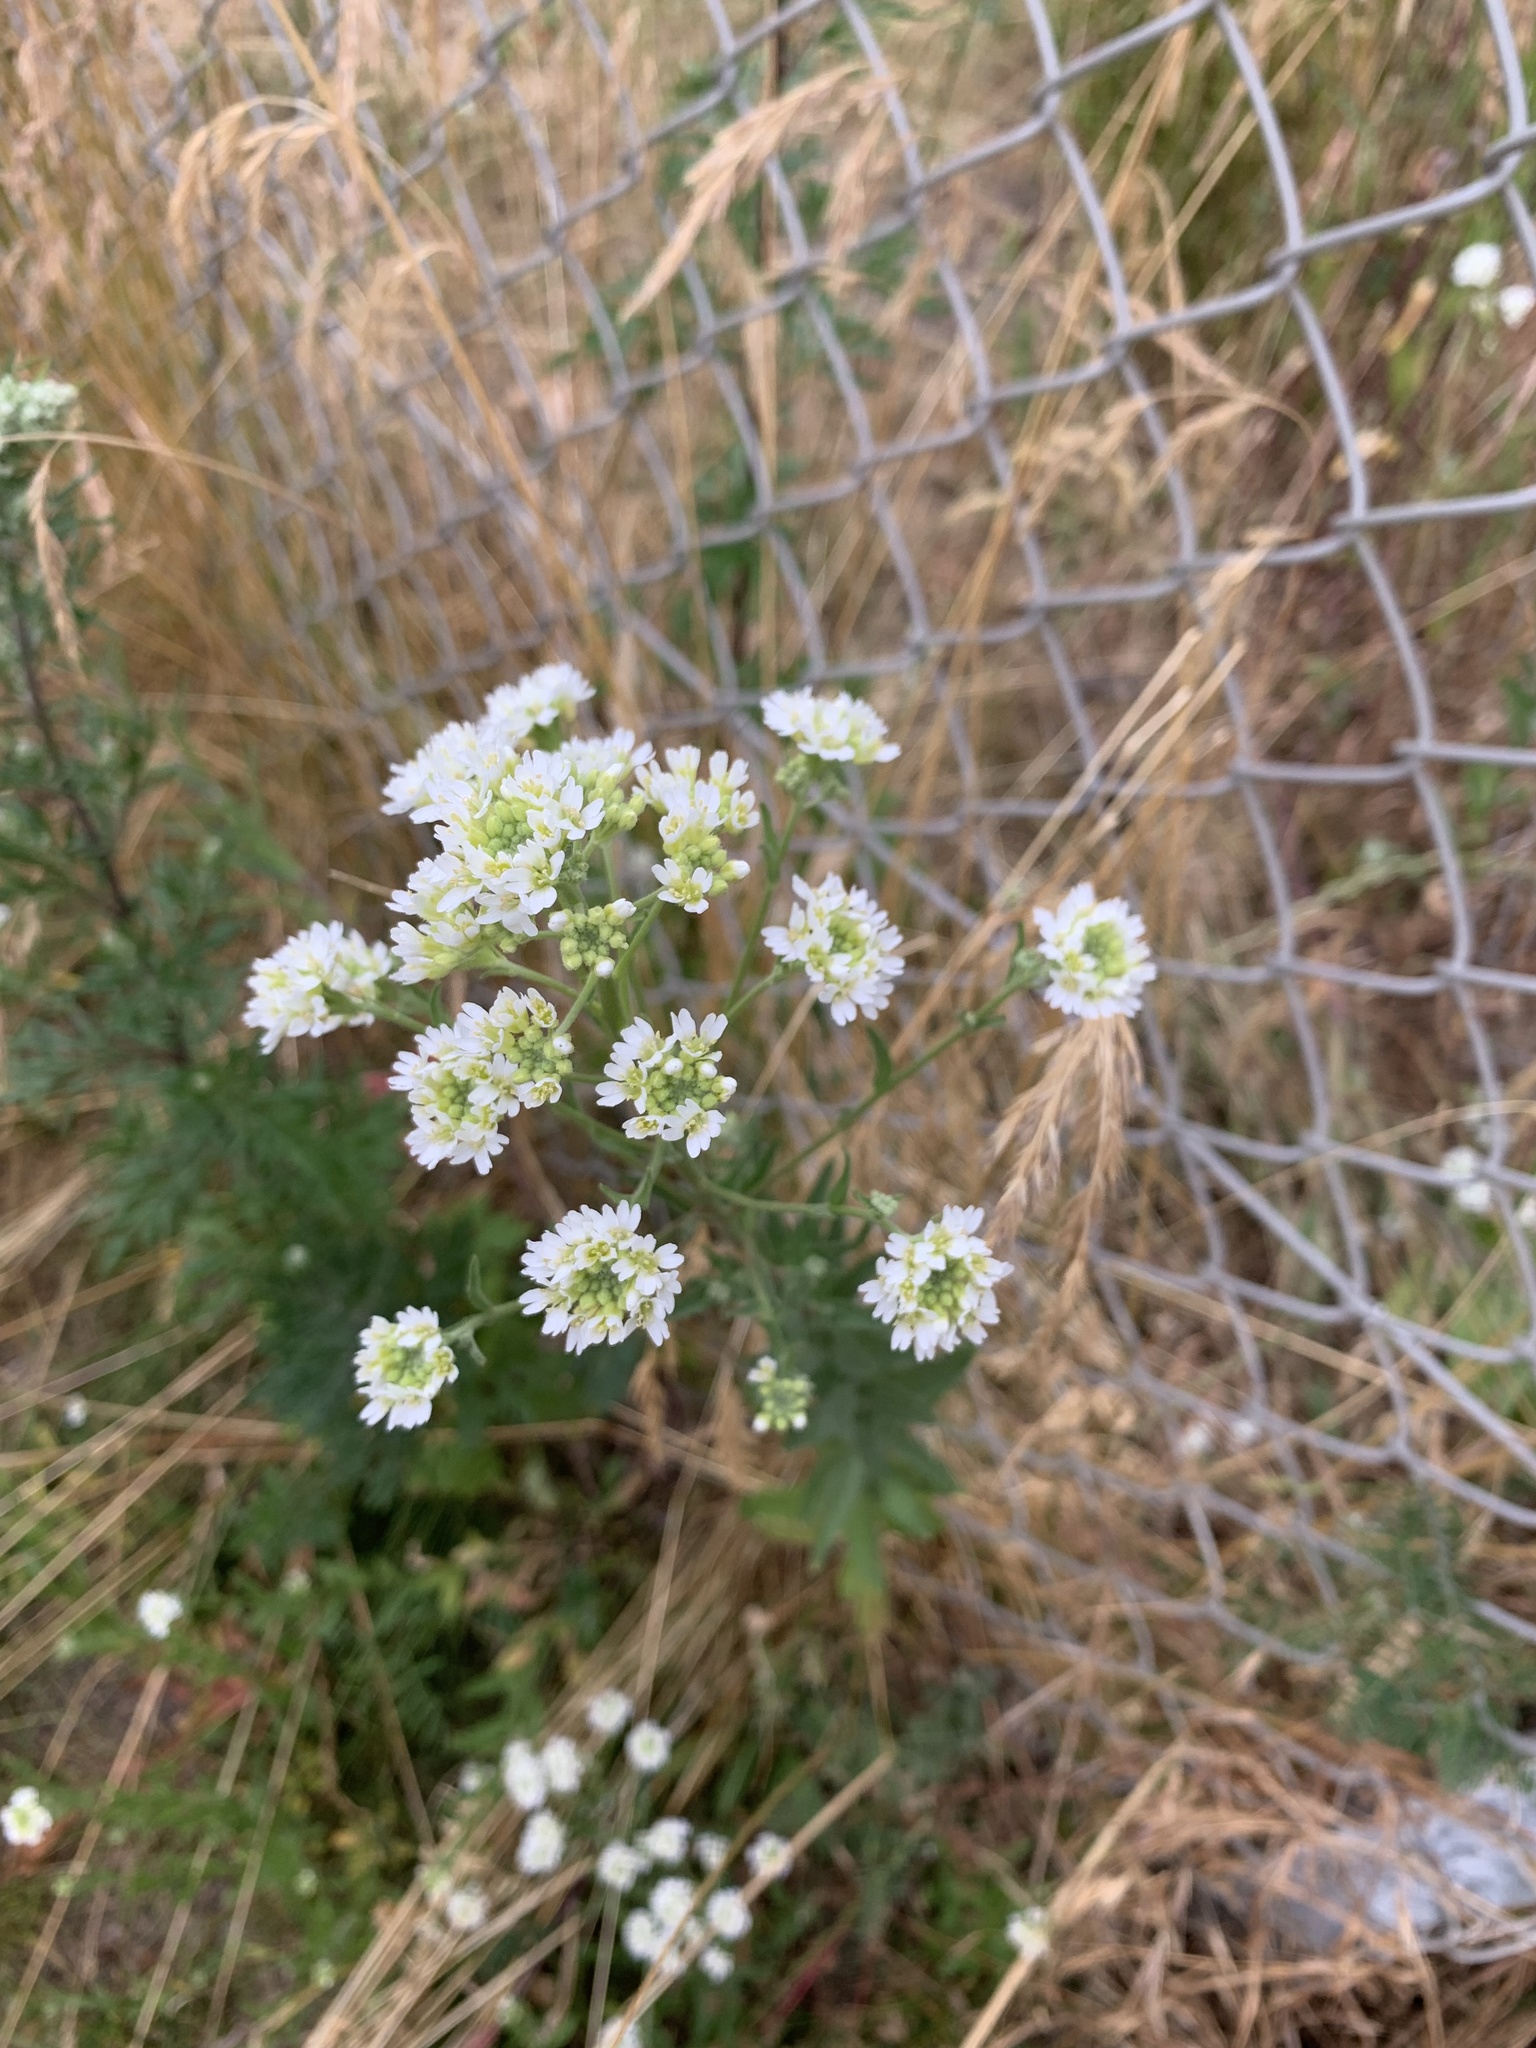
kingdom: Plantae
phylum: Tracheophyta
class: Magnoliopsida
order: Brassicales
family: Brassicaceae
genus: Berteroa
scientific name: Berteroa incana
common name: Hoary alison
